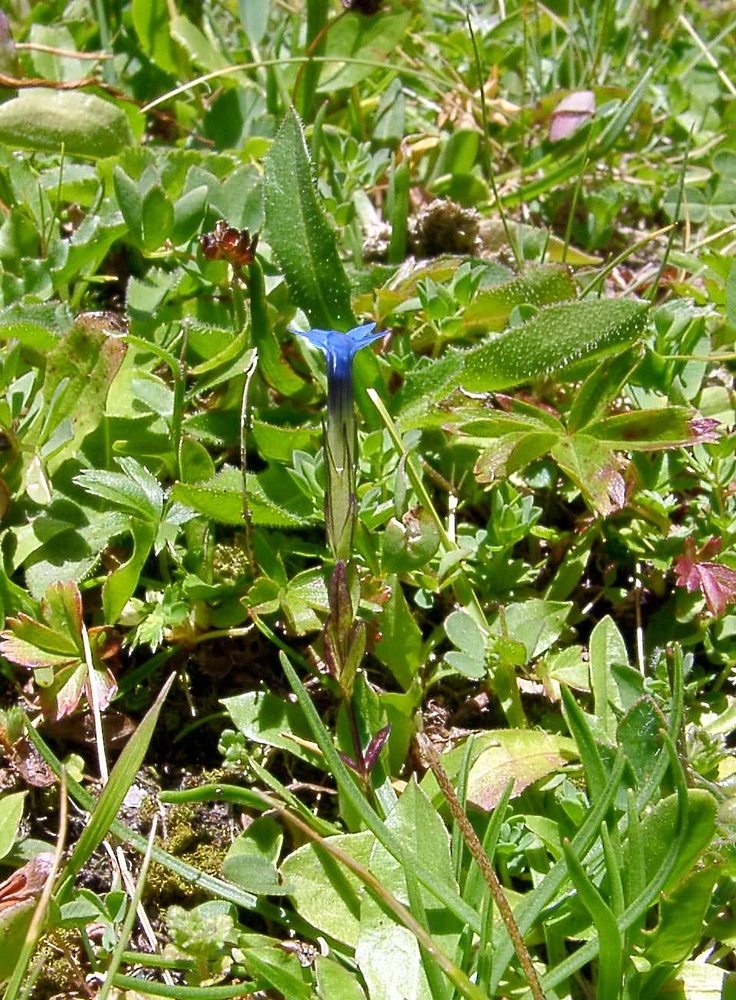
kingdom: Plantae
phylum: Tracheophyta
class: Magnoliopsida
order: Gentianales
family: Gentianaceae
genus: Gentiana
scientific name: Gentiana nivalis
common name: Alpine gentian
